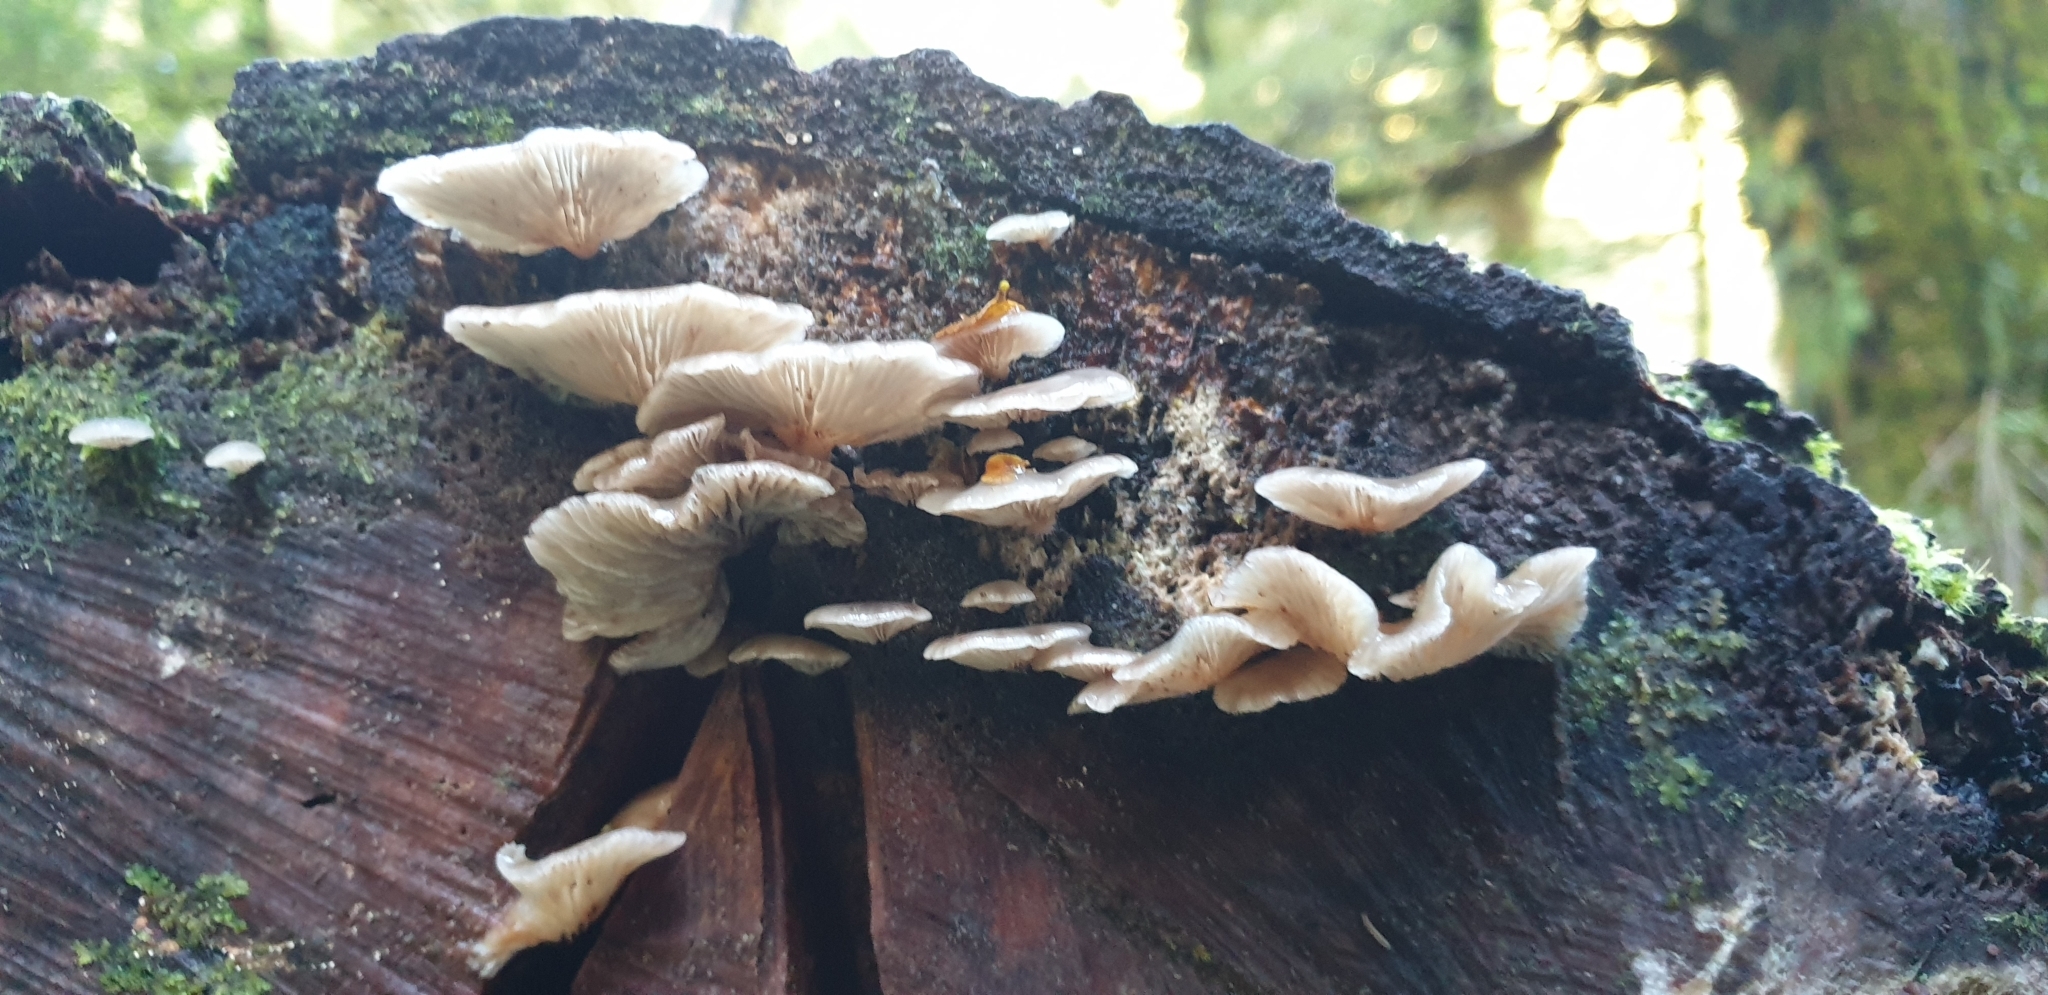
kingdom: Fungi
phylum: Basidiomycota
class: Agaricomycetes
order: Agaricales
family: Mycenaceae
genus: Panellus
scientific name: Panellus longinquus
